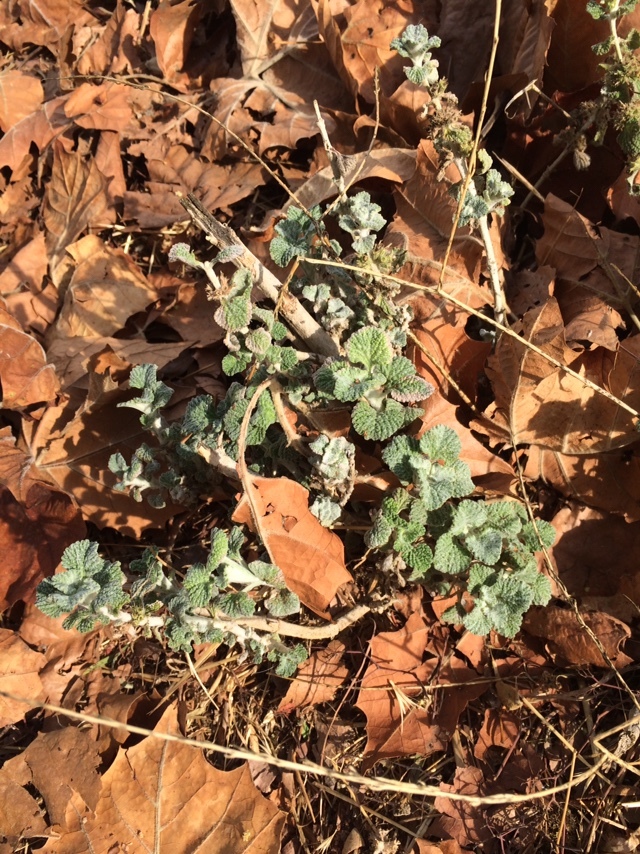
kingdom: Plantae
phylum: Tracheophyta
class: Magnoliopsida
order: Lamiales
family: Lamiaceae
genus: Marrubium
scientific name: Marrubium vulgare
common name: Horehound
